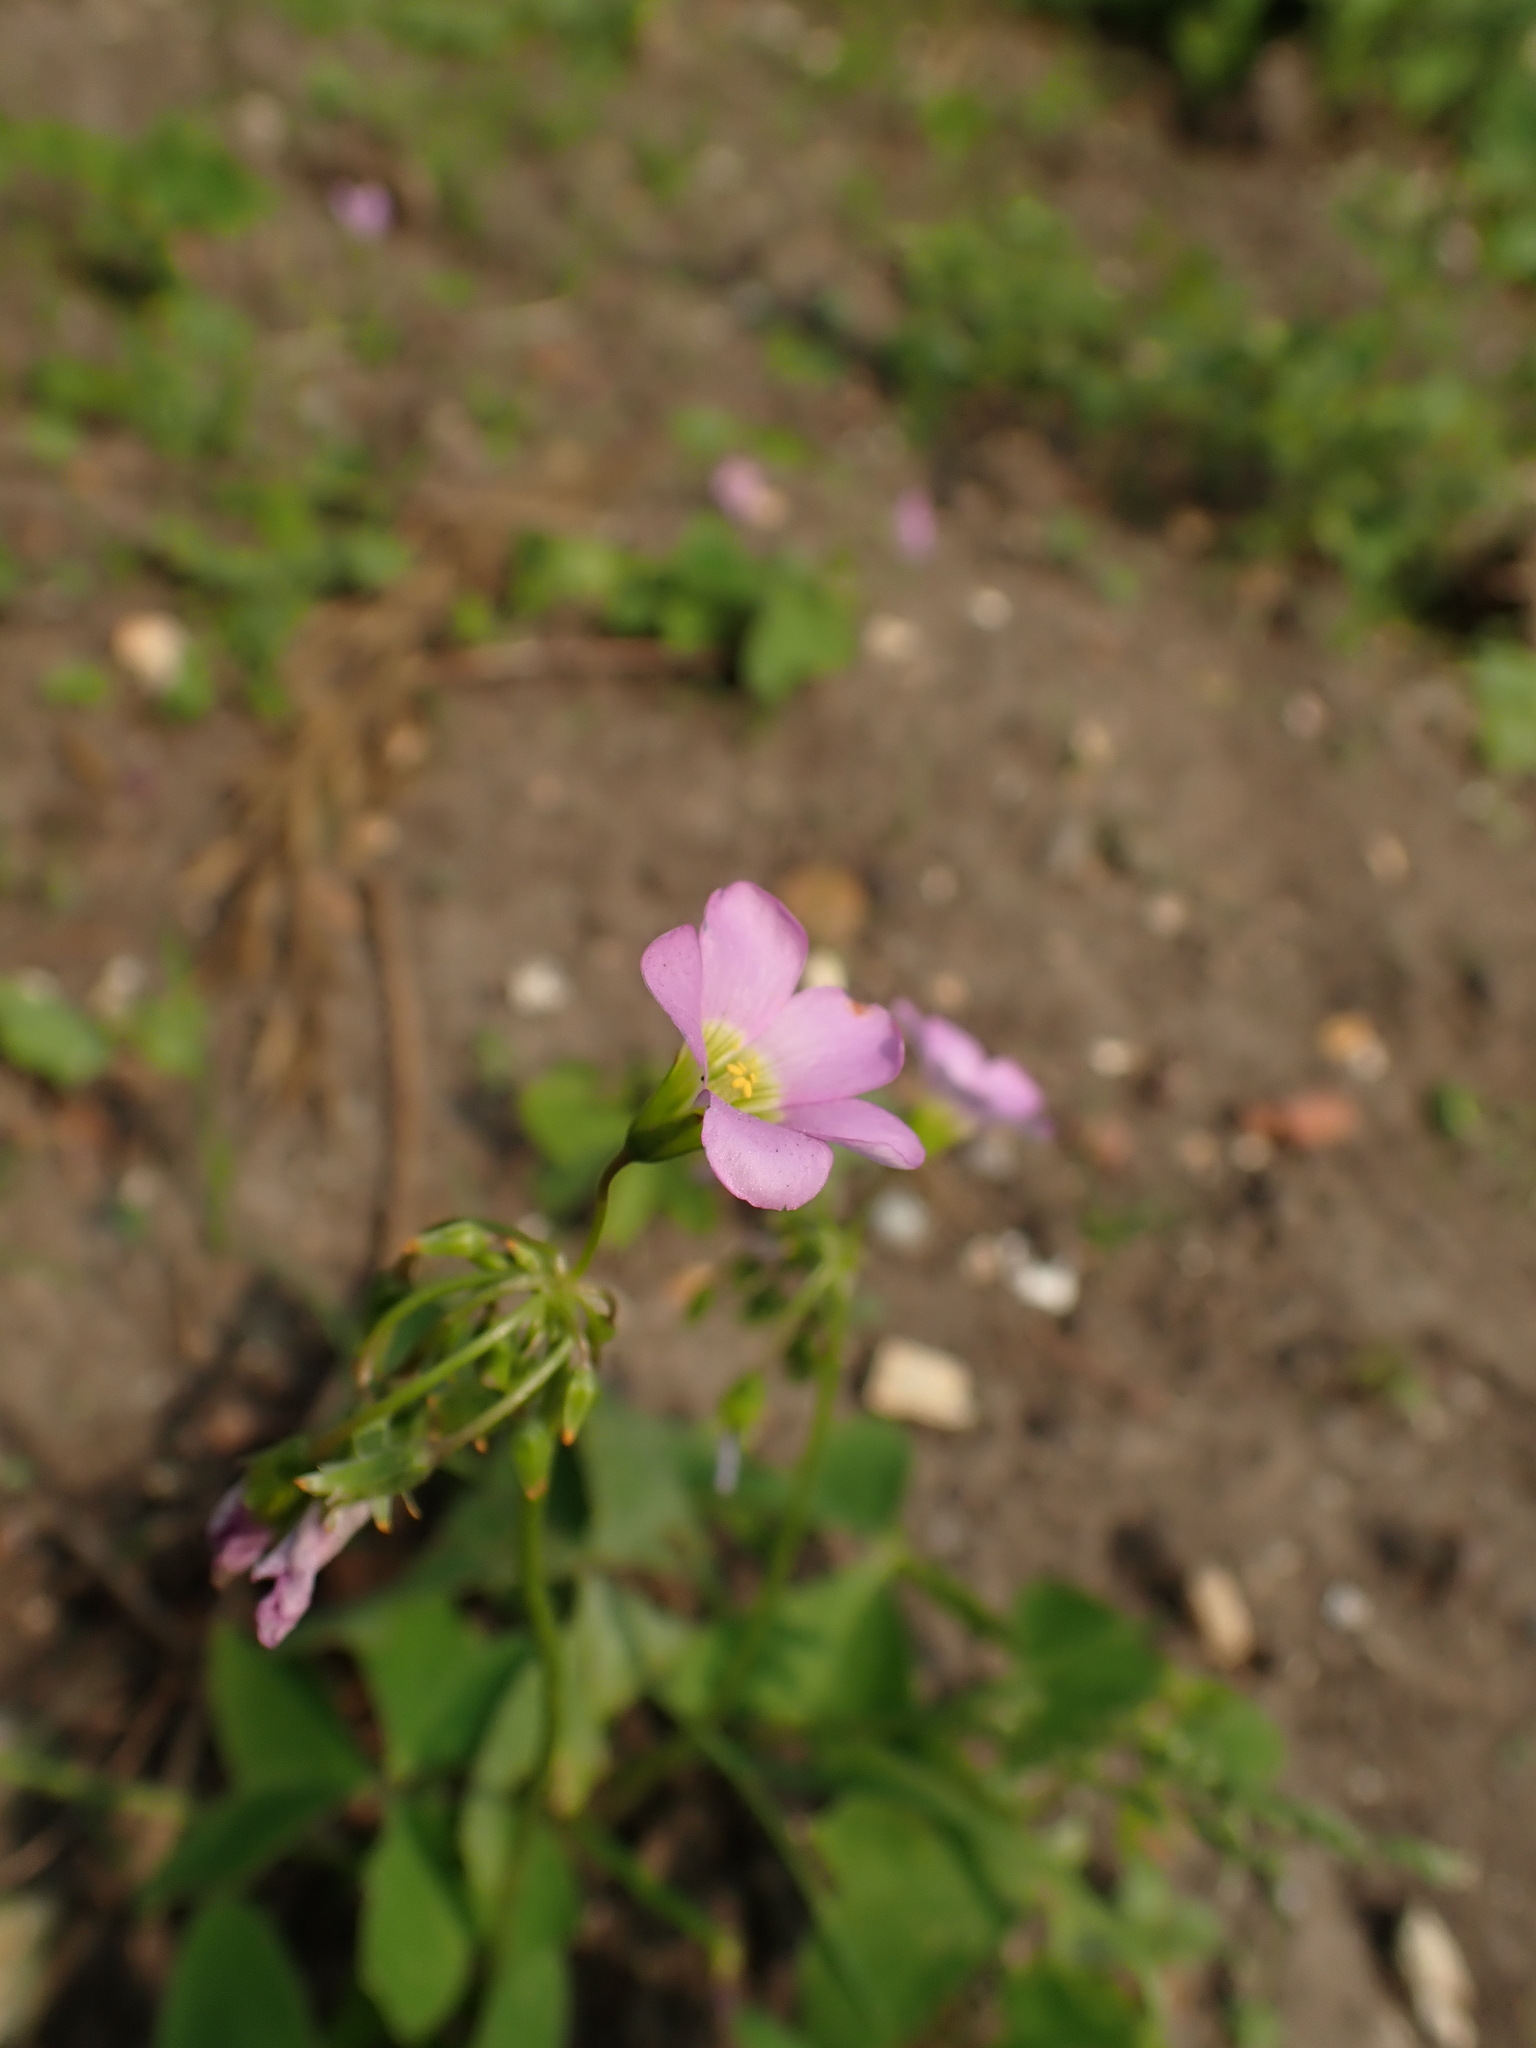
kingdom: Plantae
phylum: Tracheophyta
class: Magnoliopsida
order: Oxalidales
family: Oxalidaceae
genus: Oxalis
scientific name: Oxalis latifolia
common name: Garden pink-sorrel
